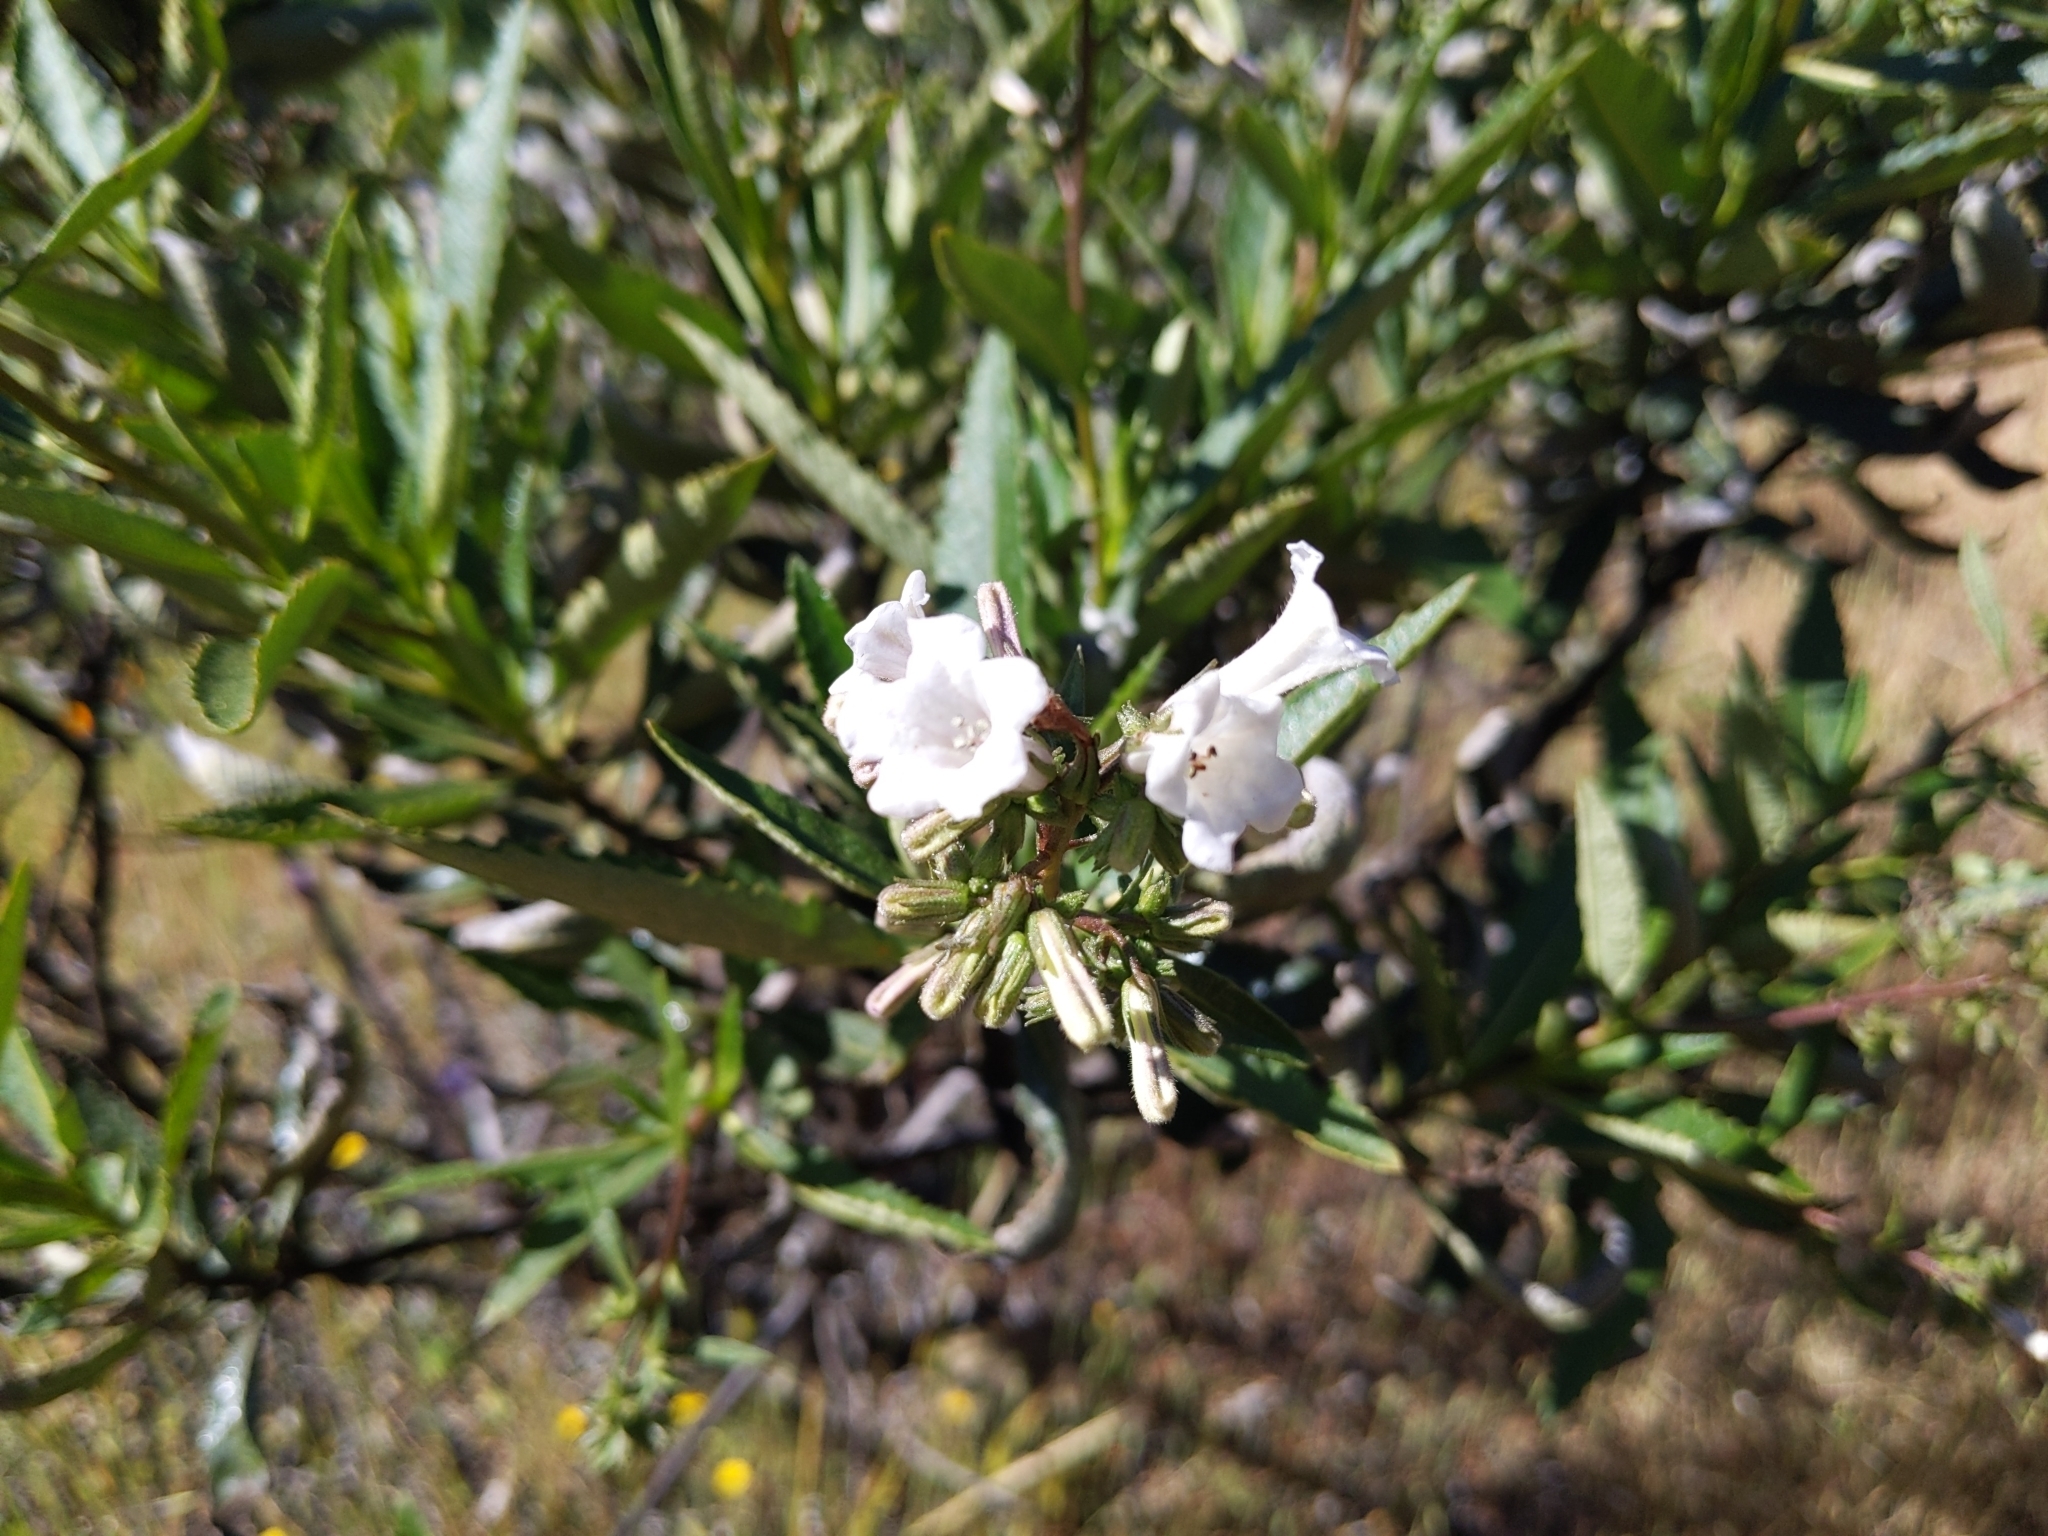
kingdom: Plantae
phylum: Tracheophyta
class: Magnoliopsida
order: Boraginales
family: Namaceae
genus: Eriodictyon
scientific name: Eriodictyon californicum
